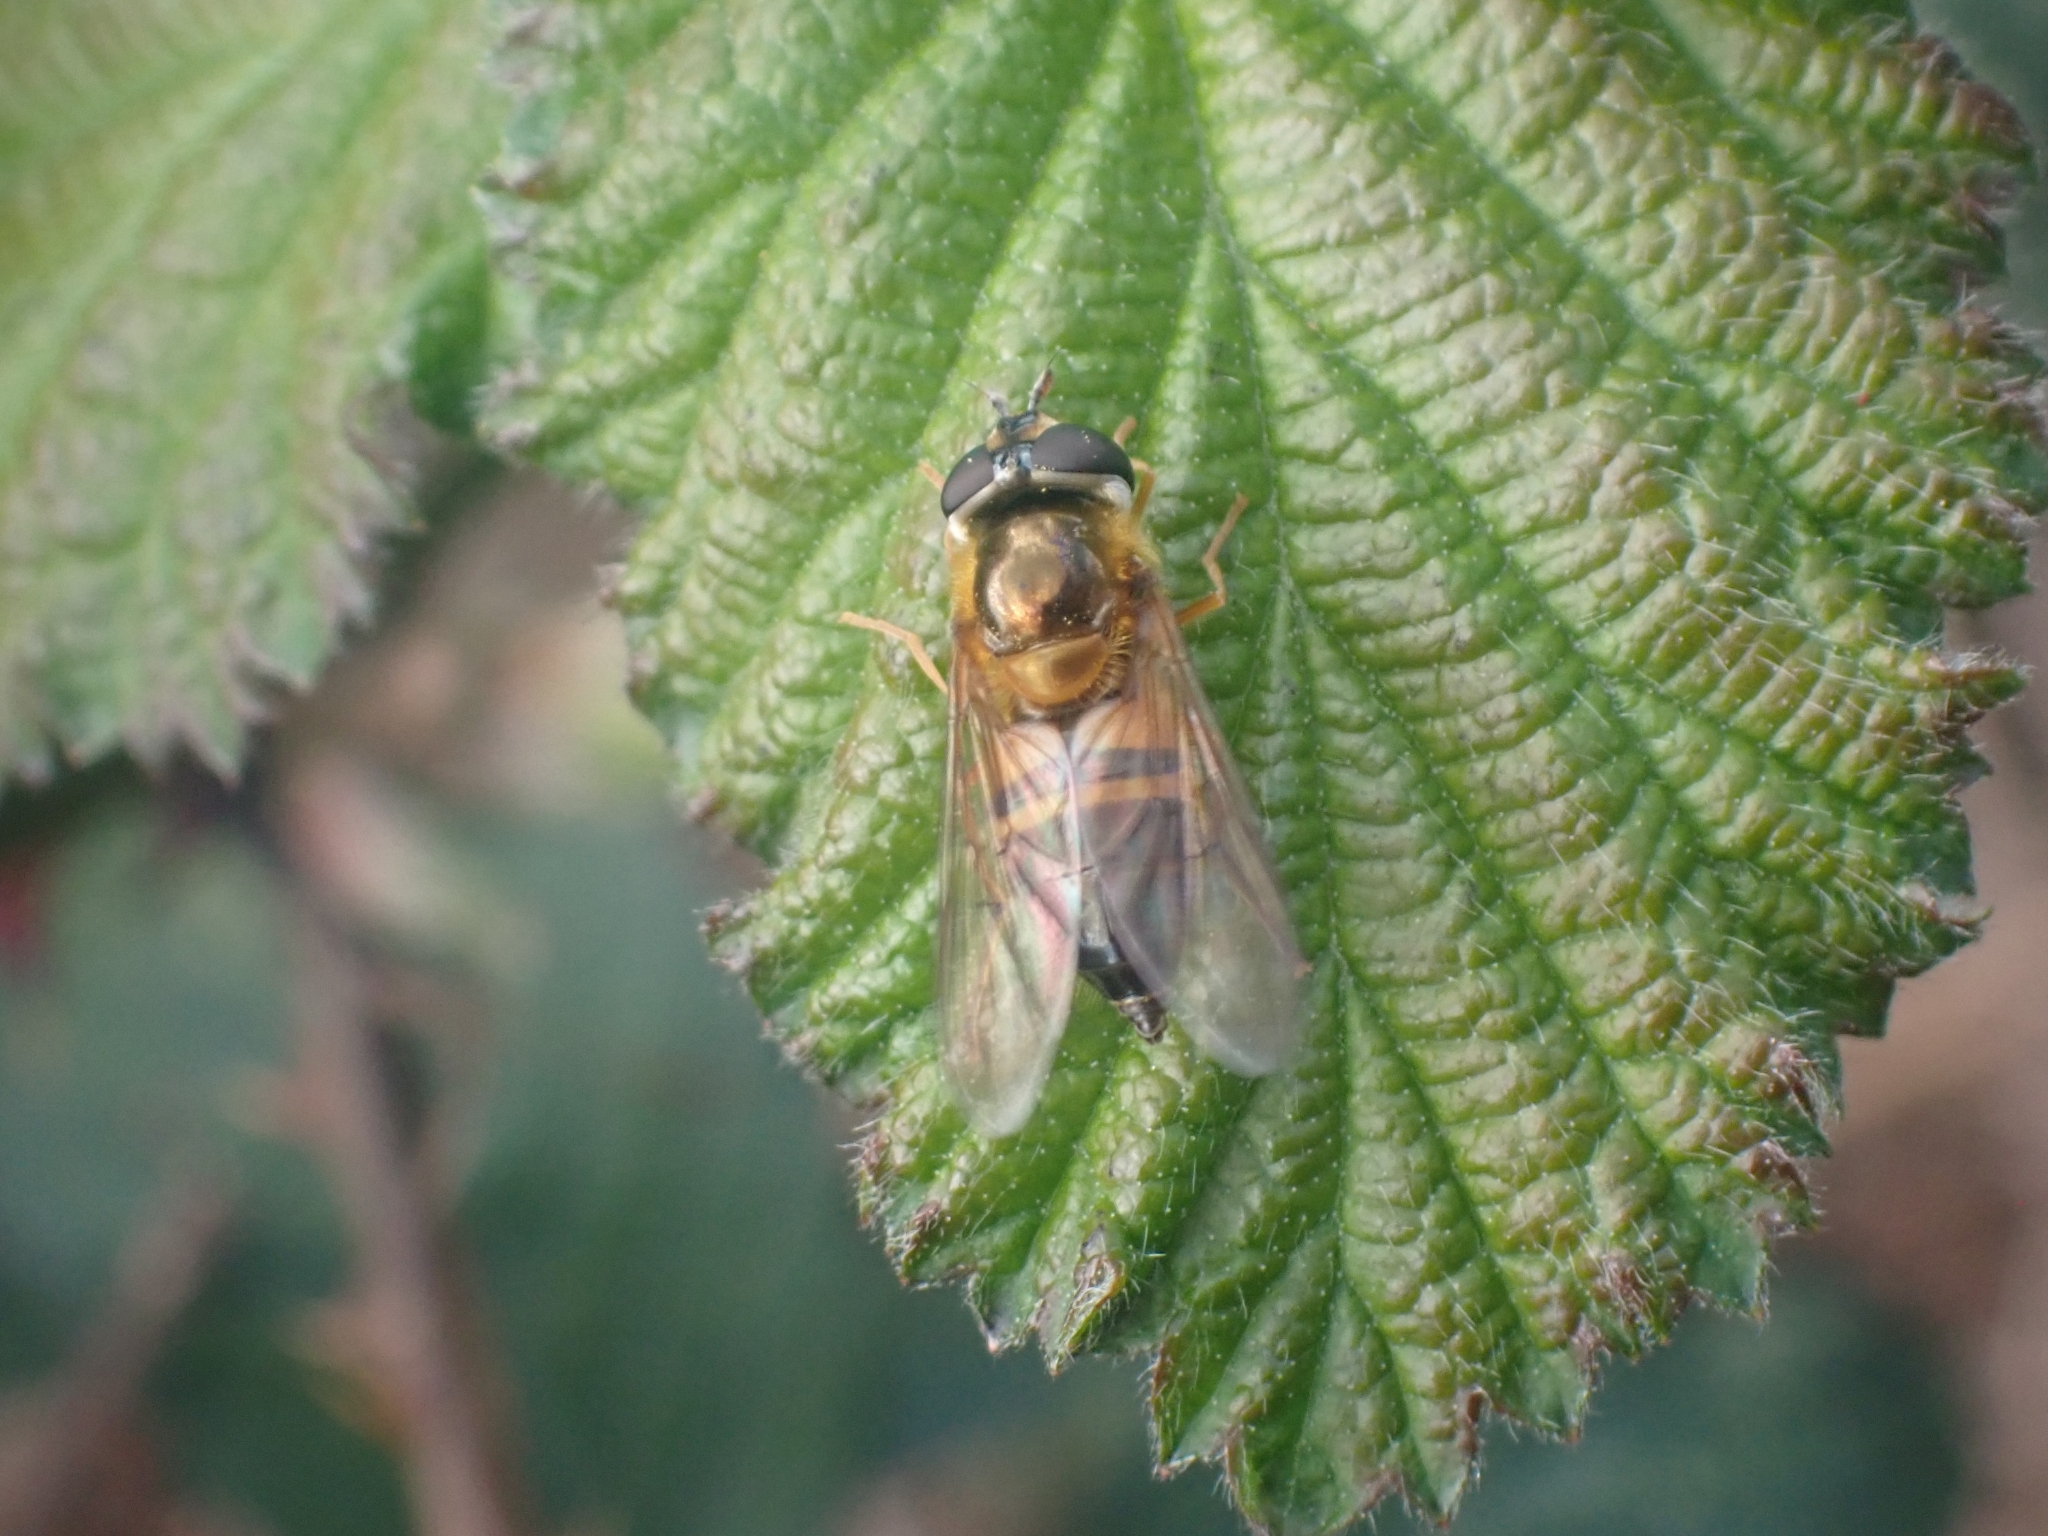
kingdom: Animalia
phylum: Arthropoda
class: Insecta
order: Diptera
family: Syrphidae
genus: Epistrophe
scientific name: Epistrophe eligans
